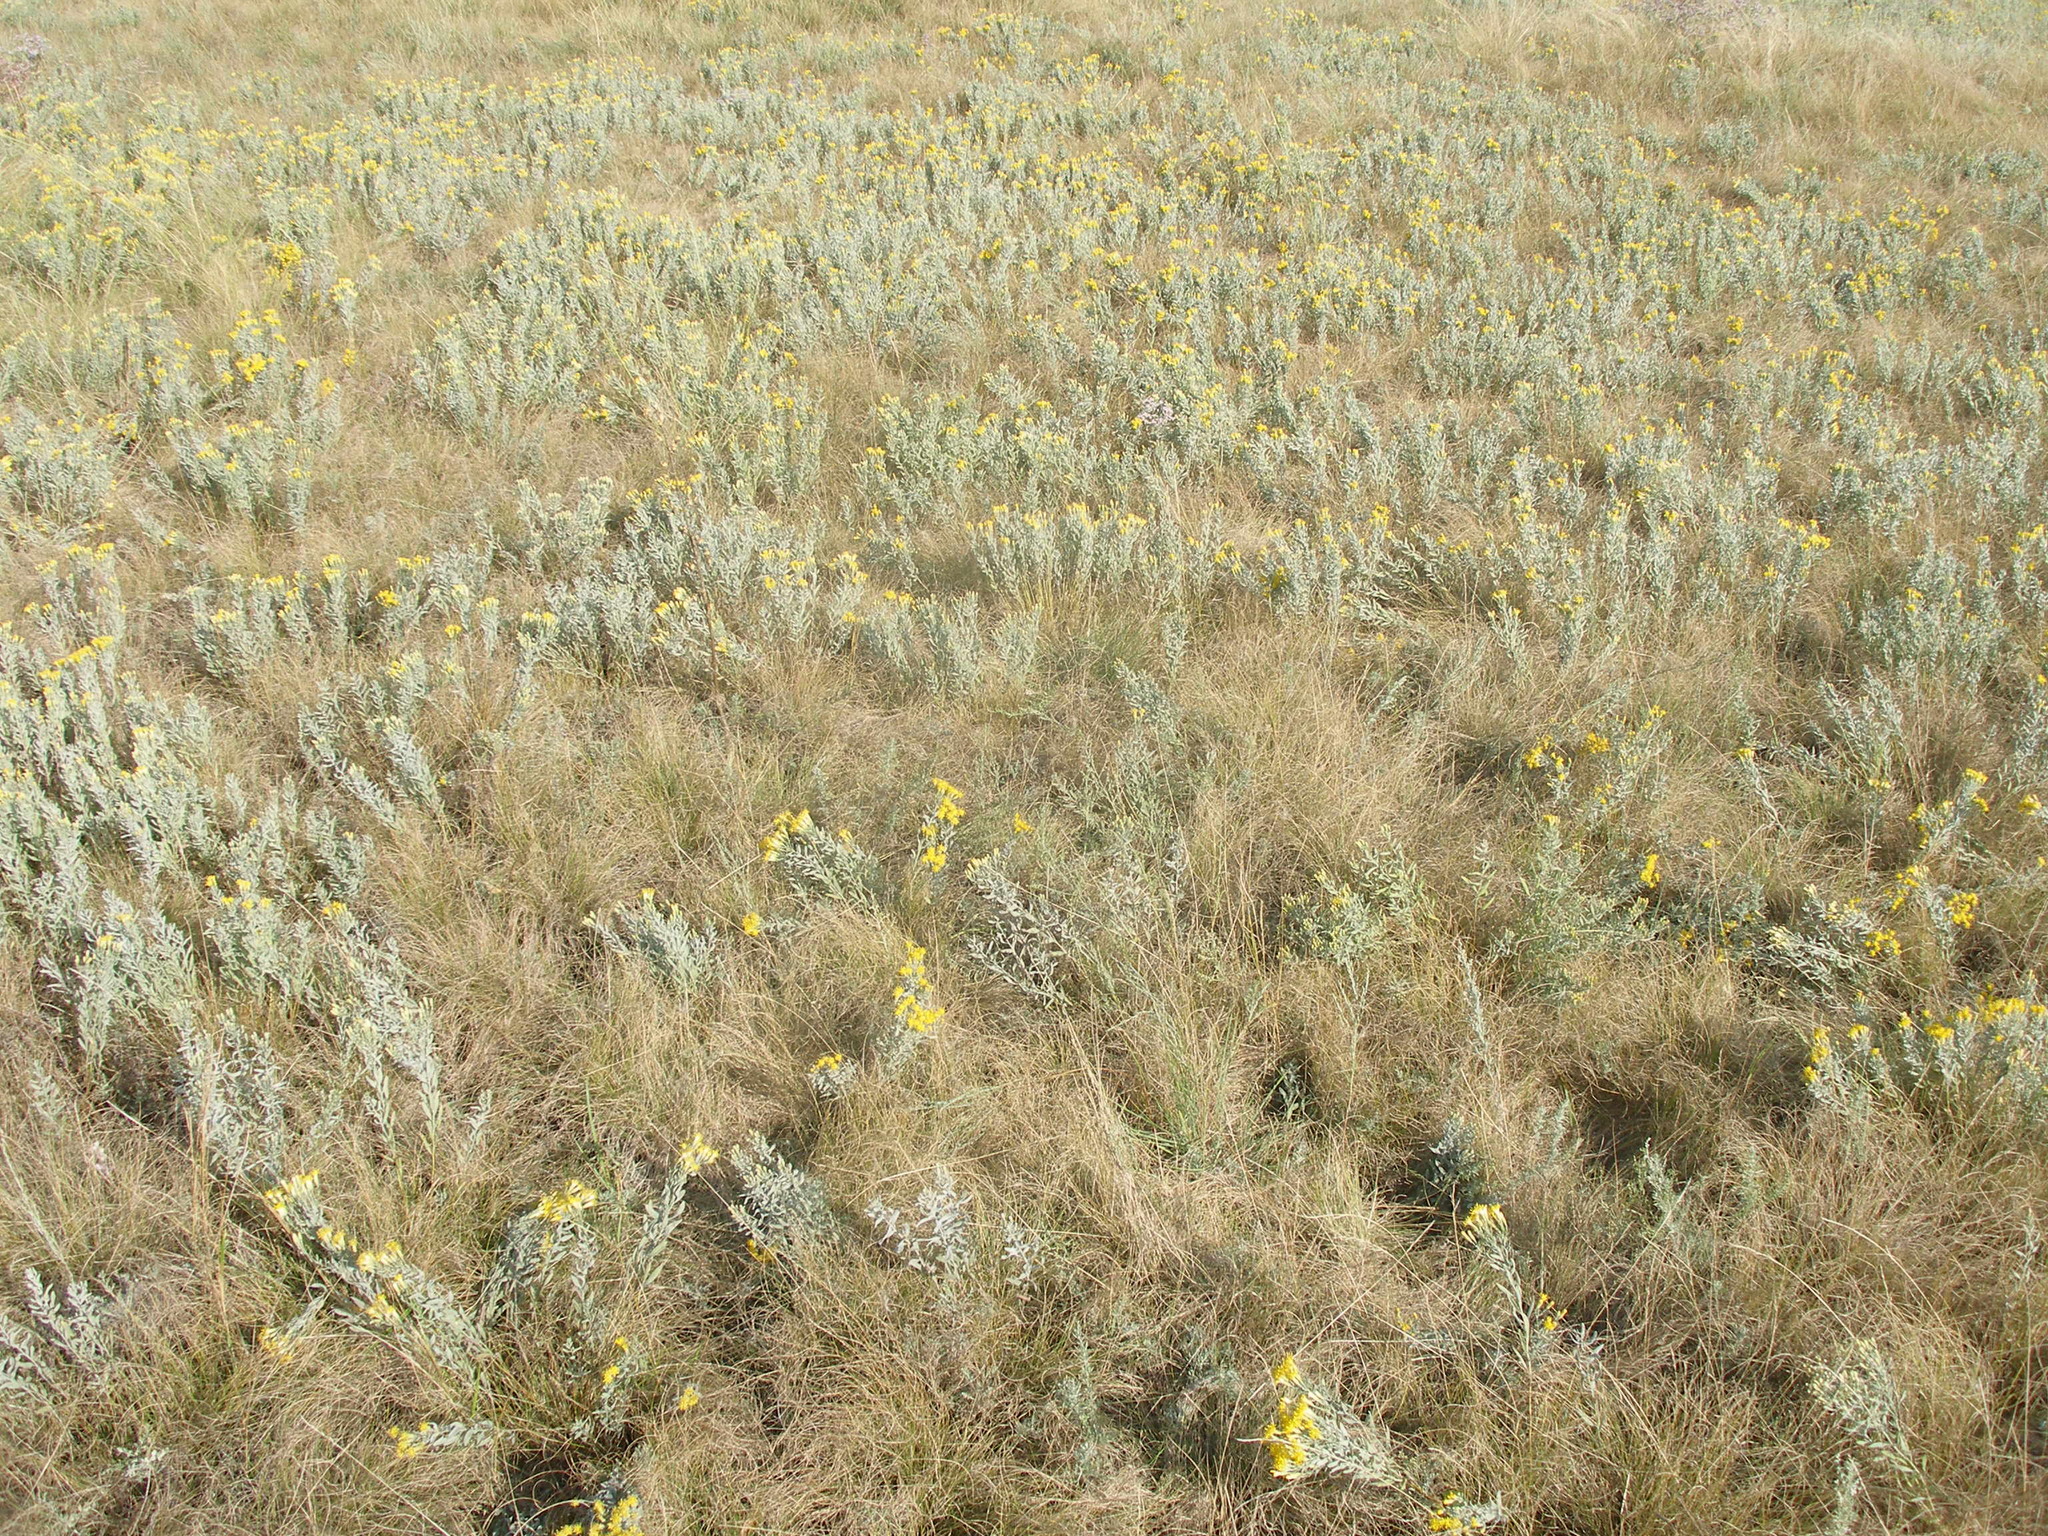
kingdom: Plantae
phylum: Tracheophyta
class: Magnoliopsida
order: Asterales
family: Asteraceae
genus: Galatella
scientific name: Galatella villosa
